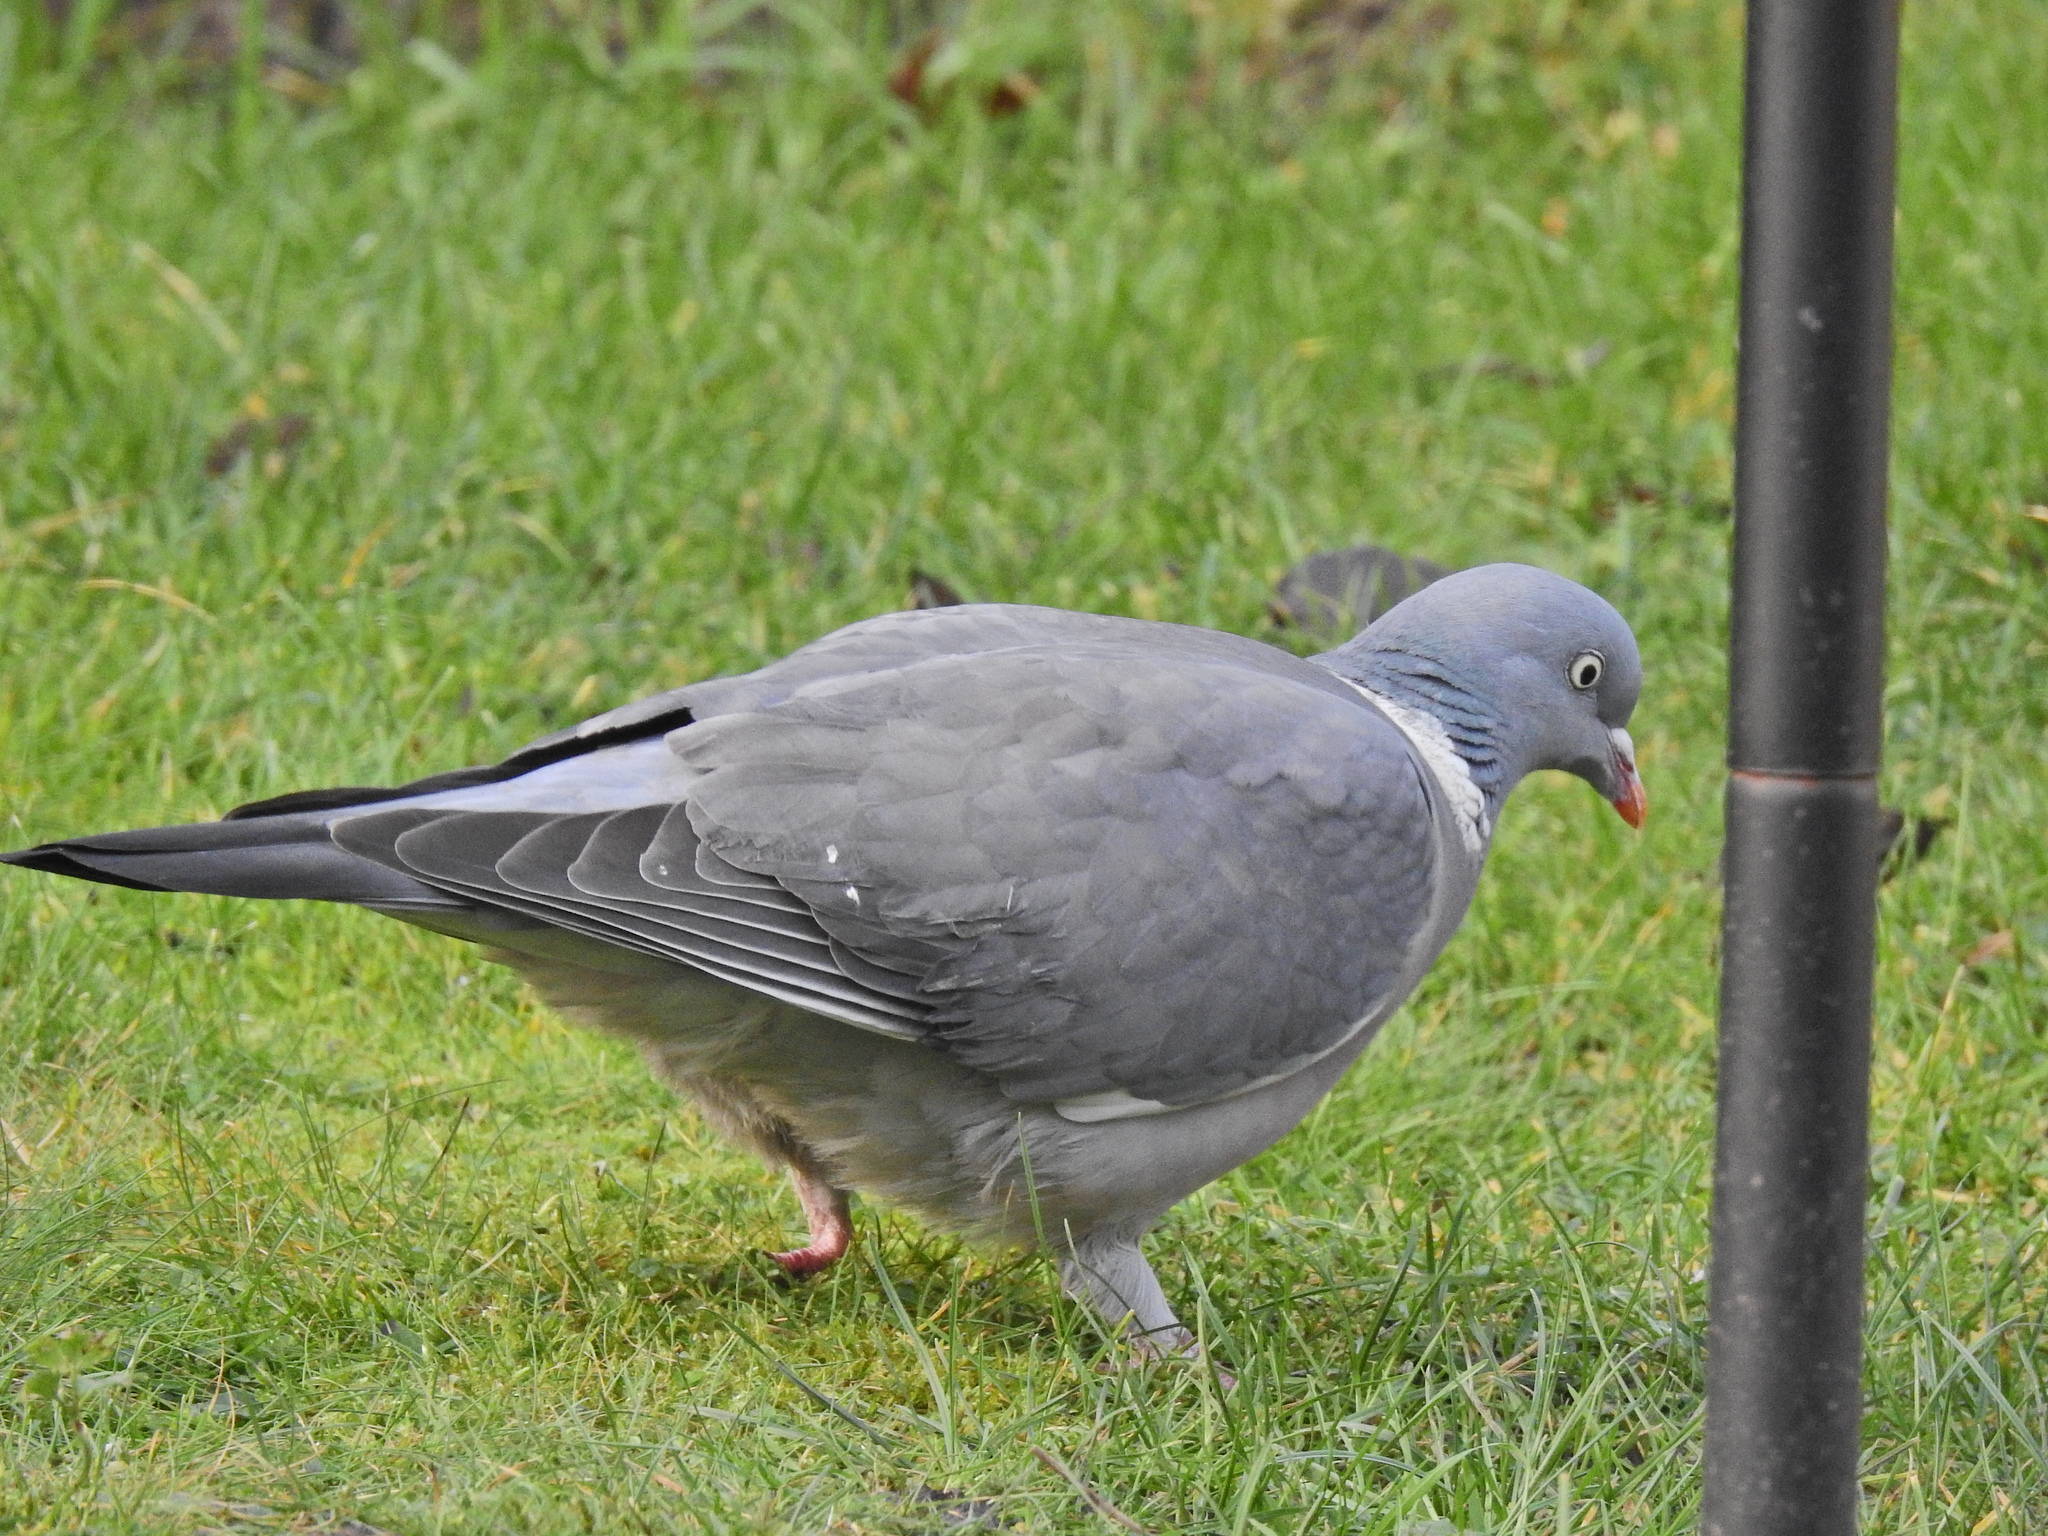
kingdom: Animalia
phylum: Chordata
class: Aves
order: Columbiformes
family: Columbidae
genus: Columba
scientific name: Columba palumbus
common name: Common wood pigeon
